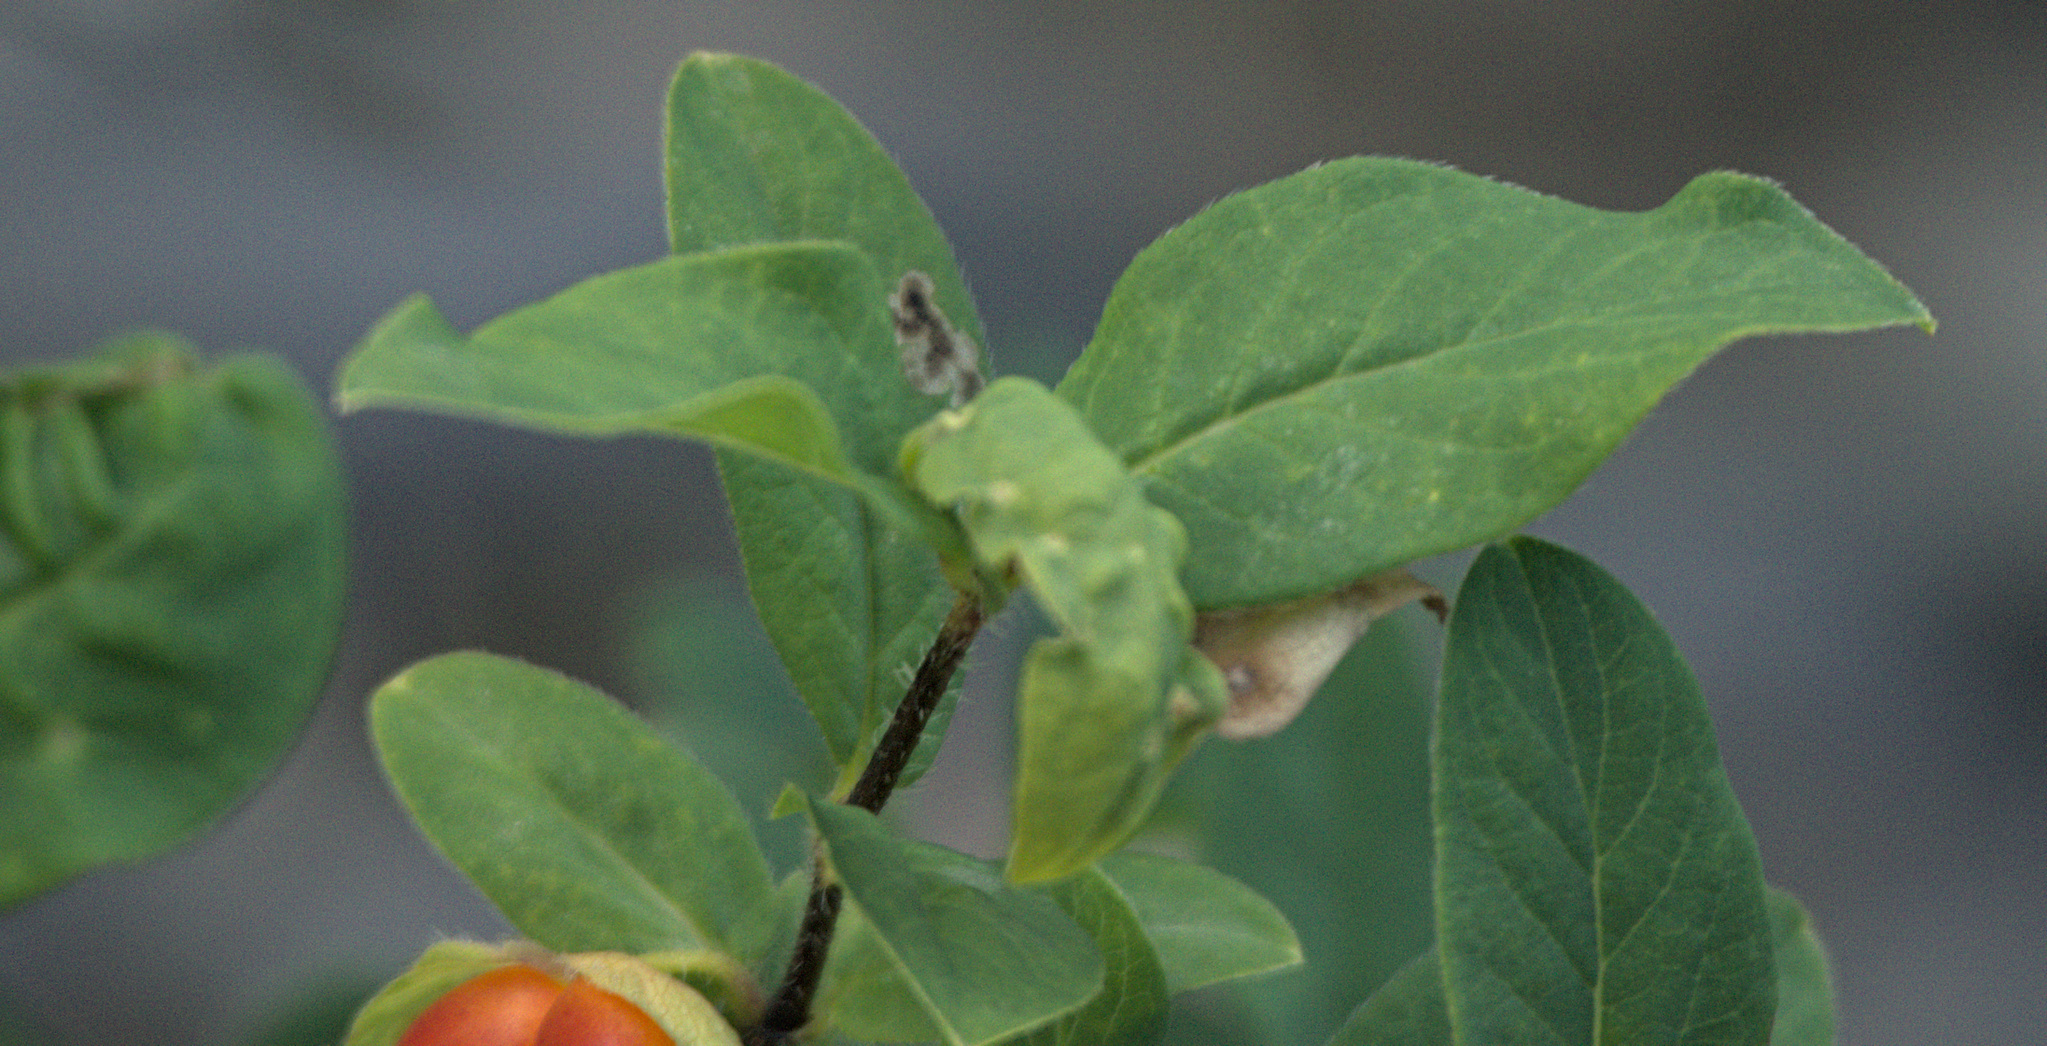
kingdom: Plantae
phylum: Tracheophyta
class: Magnoliopsida
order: Dipsacales
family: Caprifoliaceae
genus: Lonicera
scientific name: Lonicera hispida
